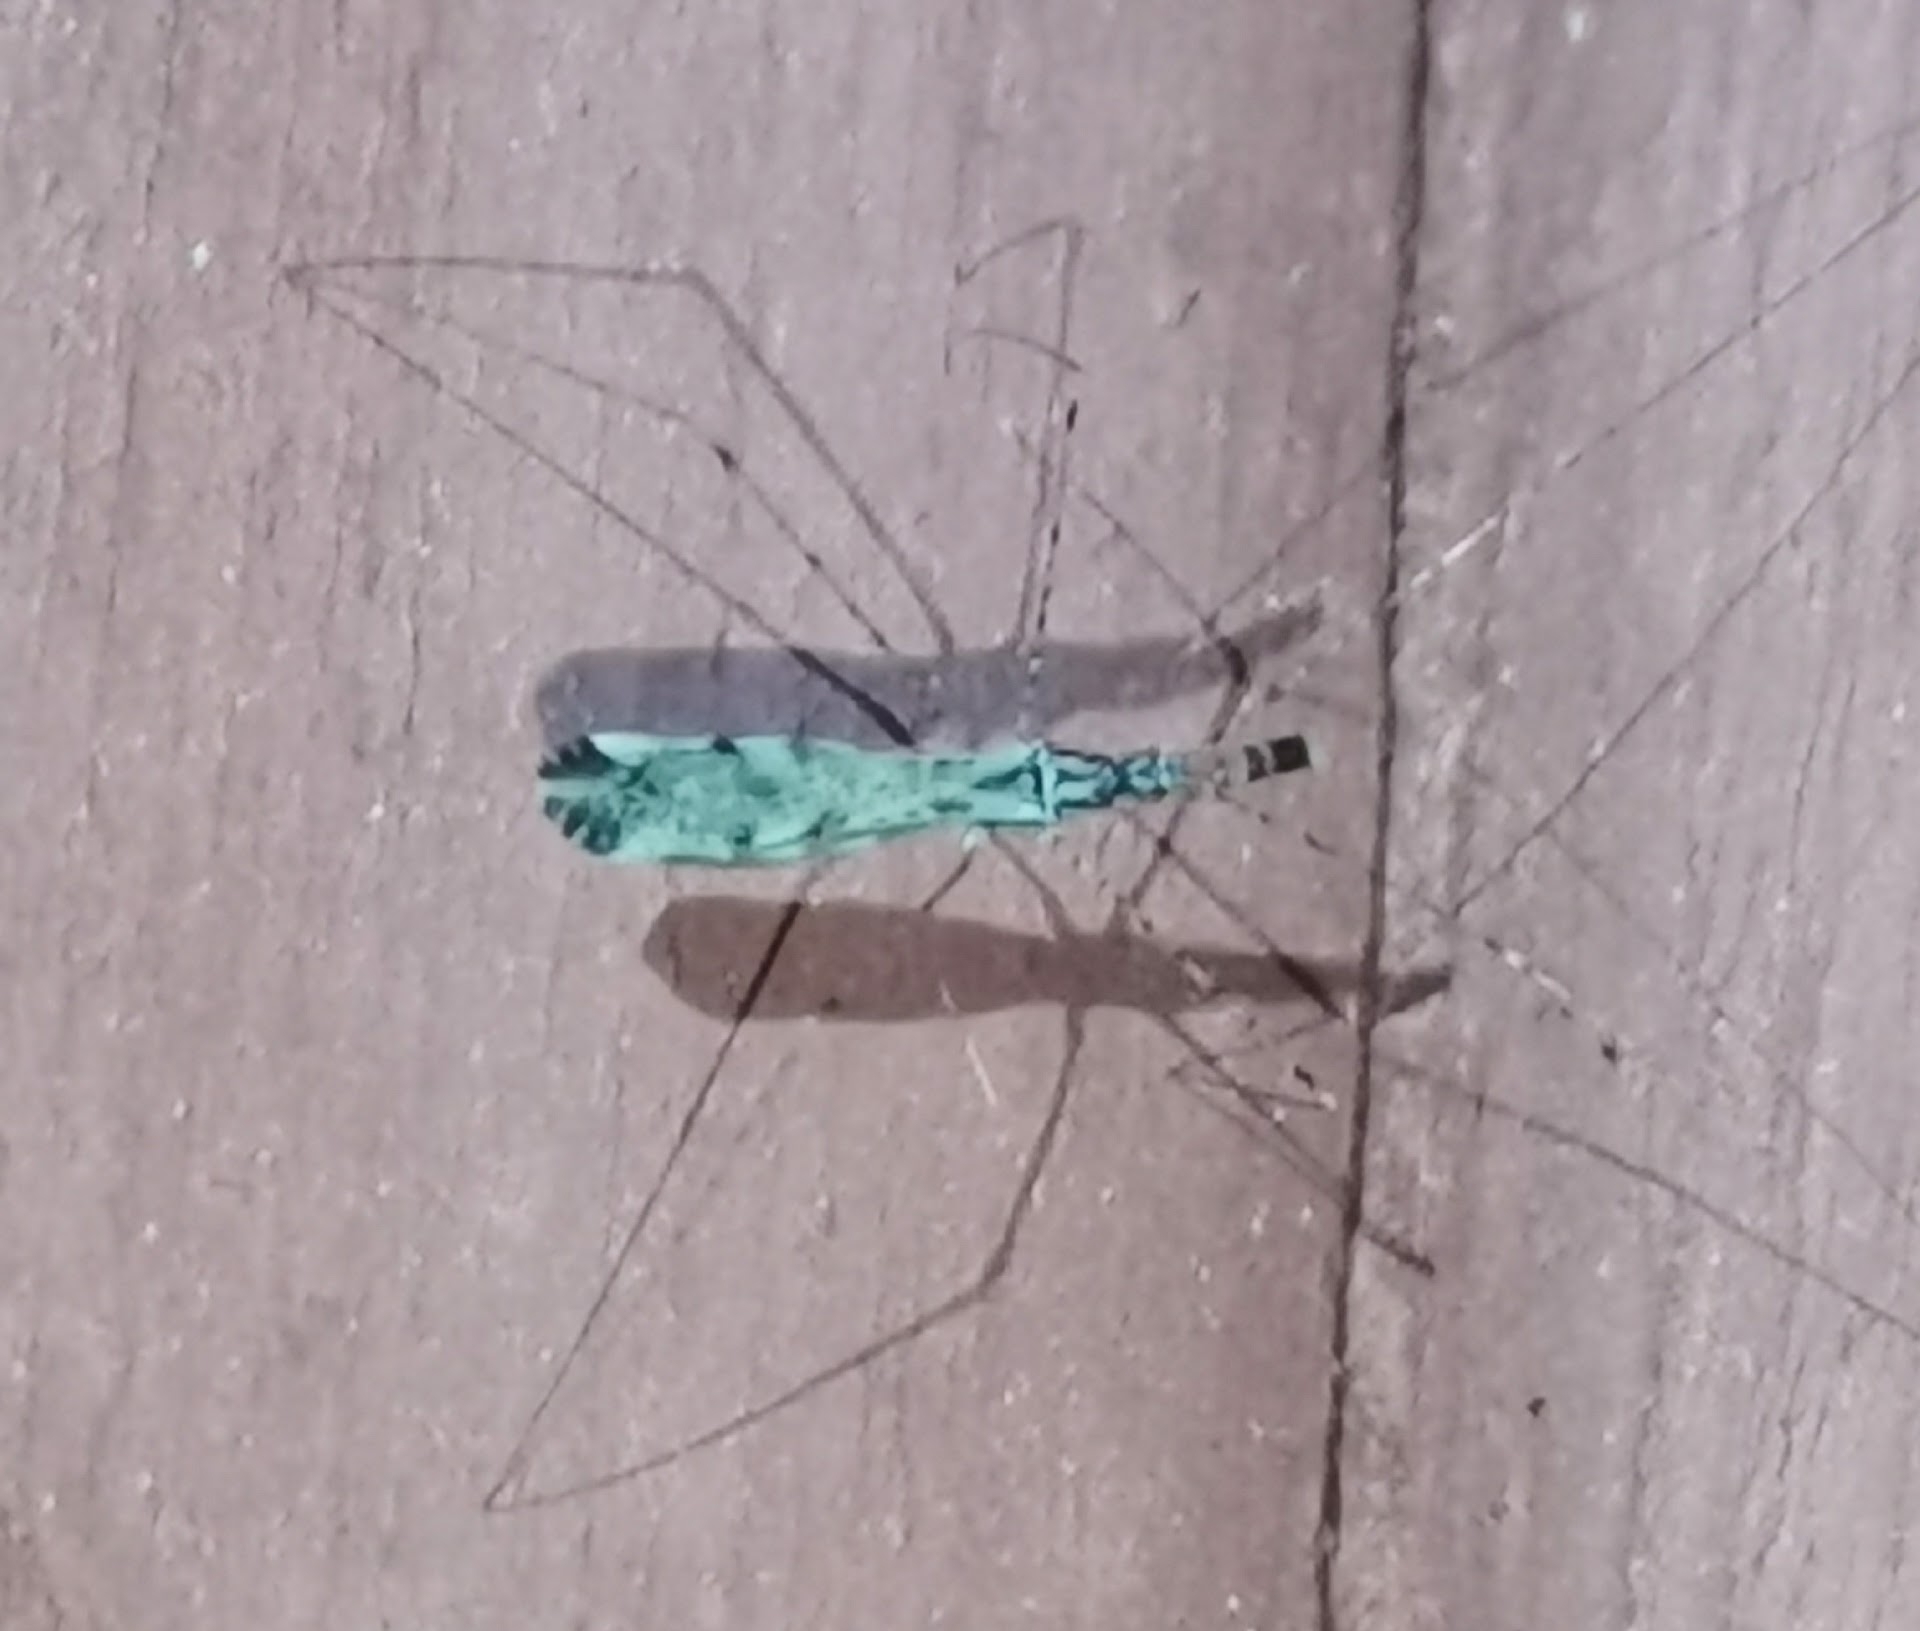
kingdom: Animalia
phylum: Arthropoda
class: Insecta
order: Hemiptera
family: Reduviidae
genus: Empicoris
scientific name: Empicoris vagabundus
